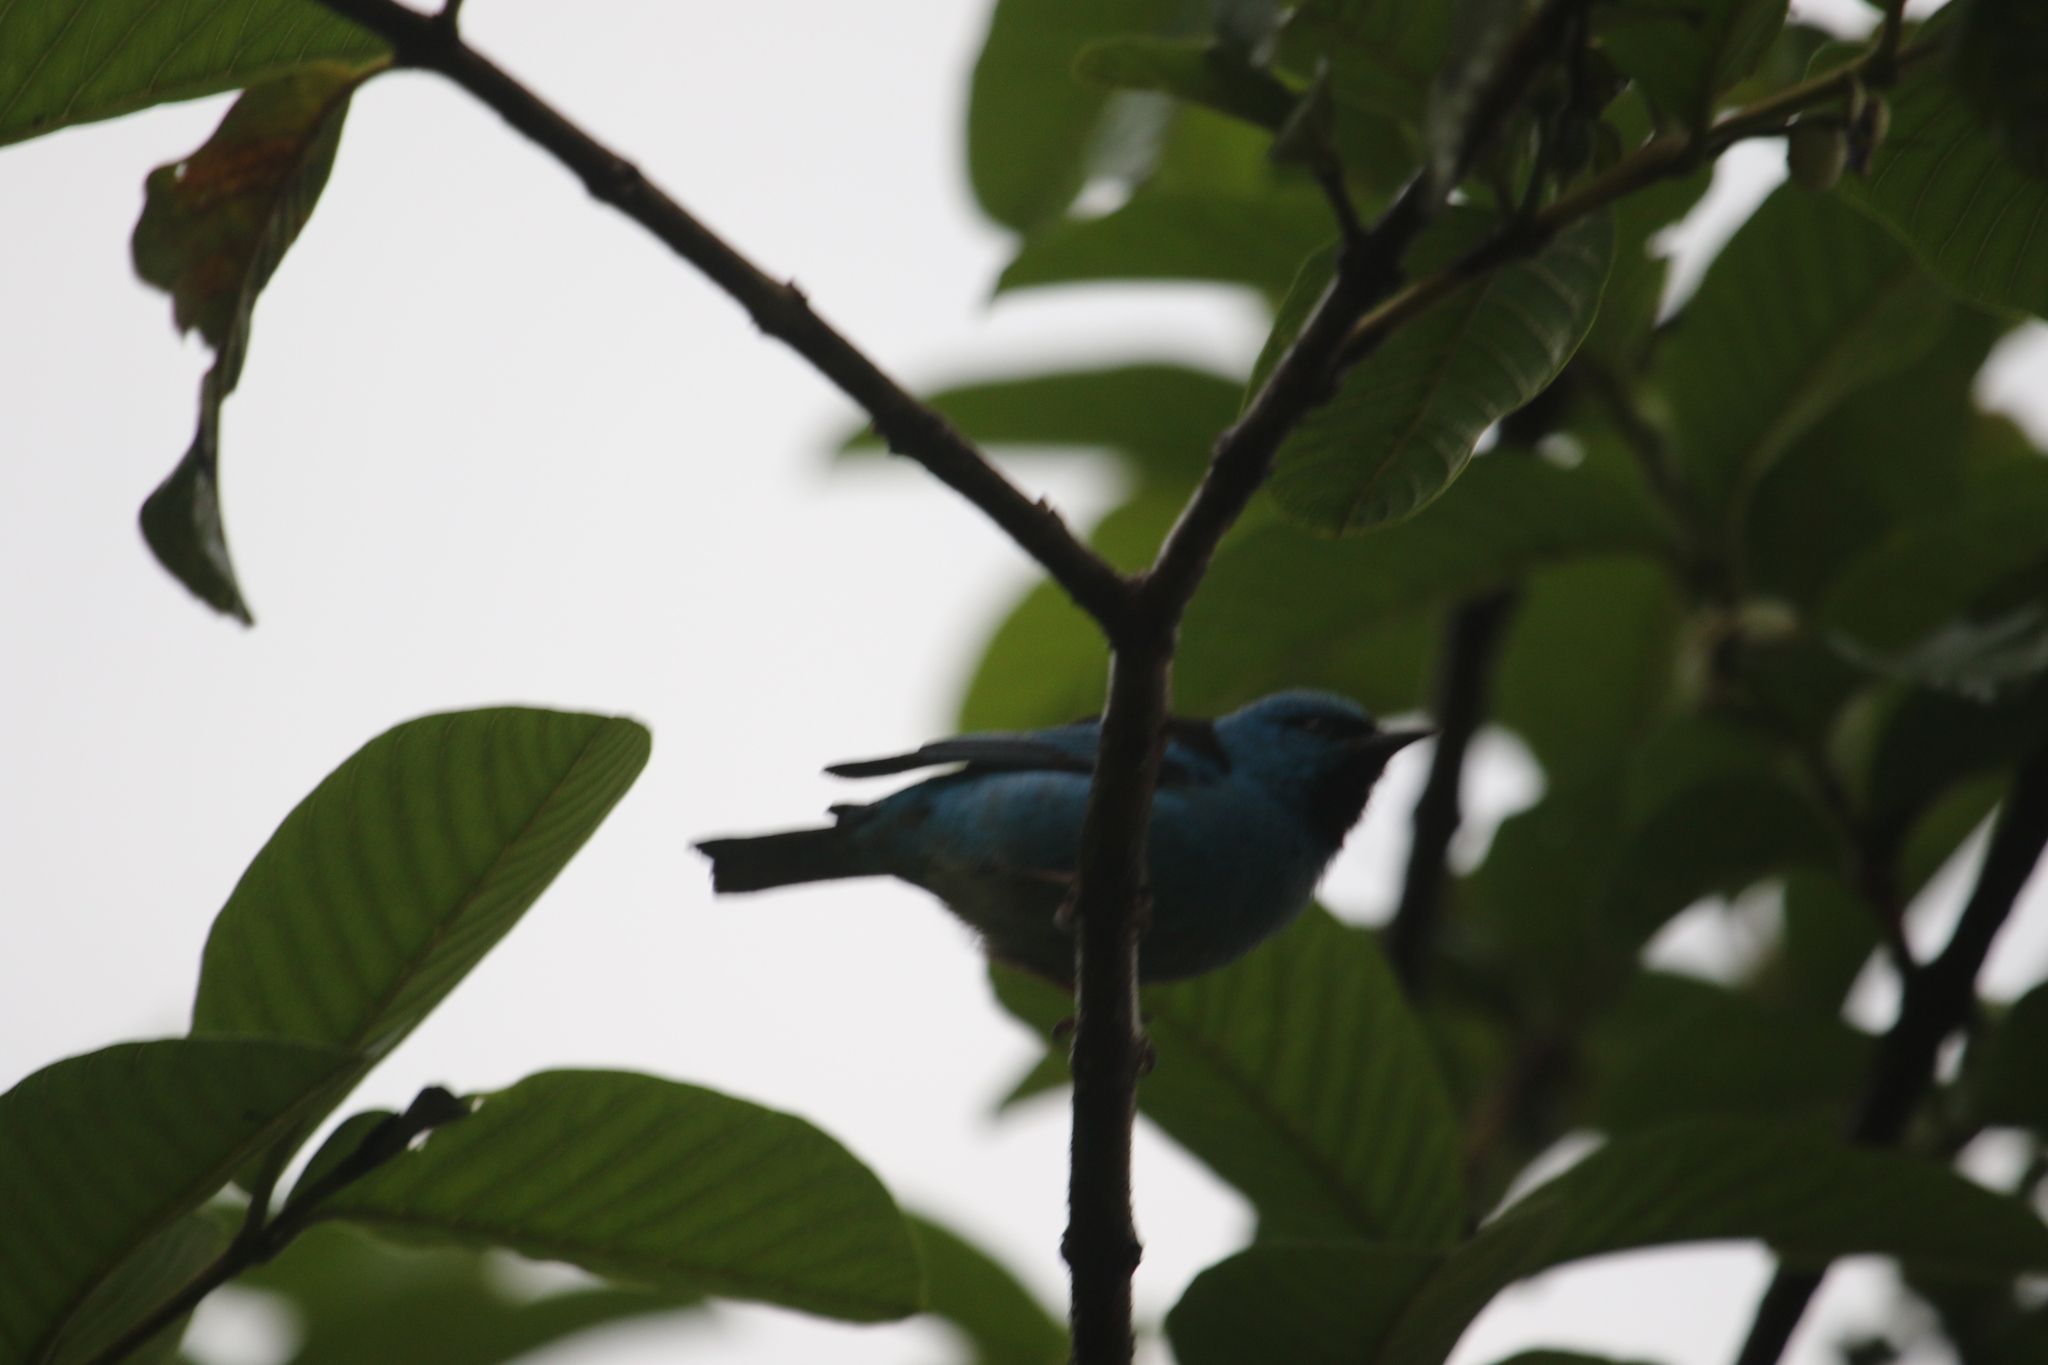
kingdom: Animalia
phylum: Chordata
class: Aves
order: Passeriformes
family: Thraupidae
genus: Dacnis
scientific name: Dacnis cayana
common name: Blue dacnis
